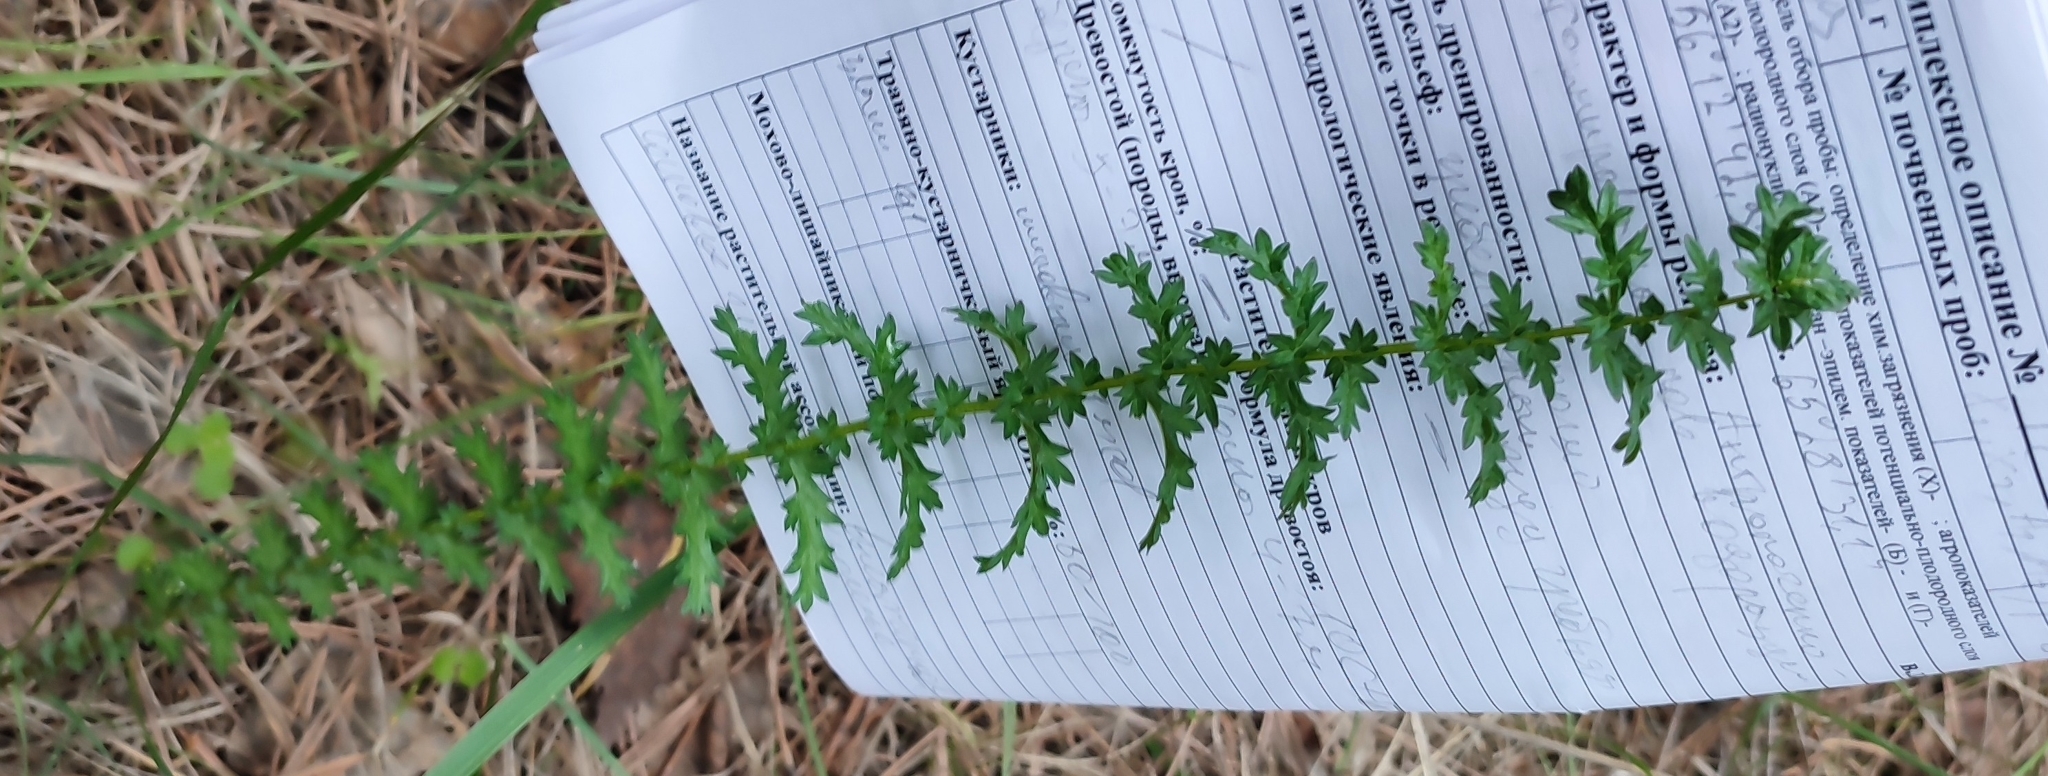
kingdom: Plantae
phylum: Tracheophyta
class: Magnoliopsida
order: Rosales
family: Rosaceae
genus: Filipendula
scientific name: Filipendula vulgaris
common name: Dropwort
